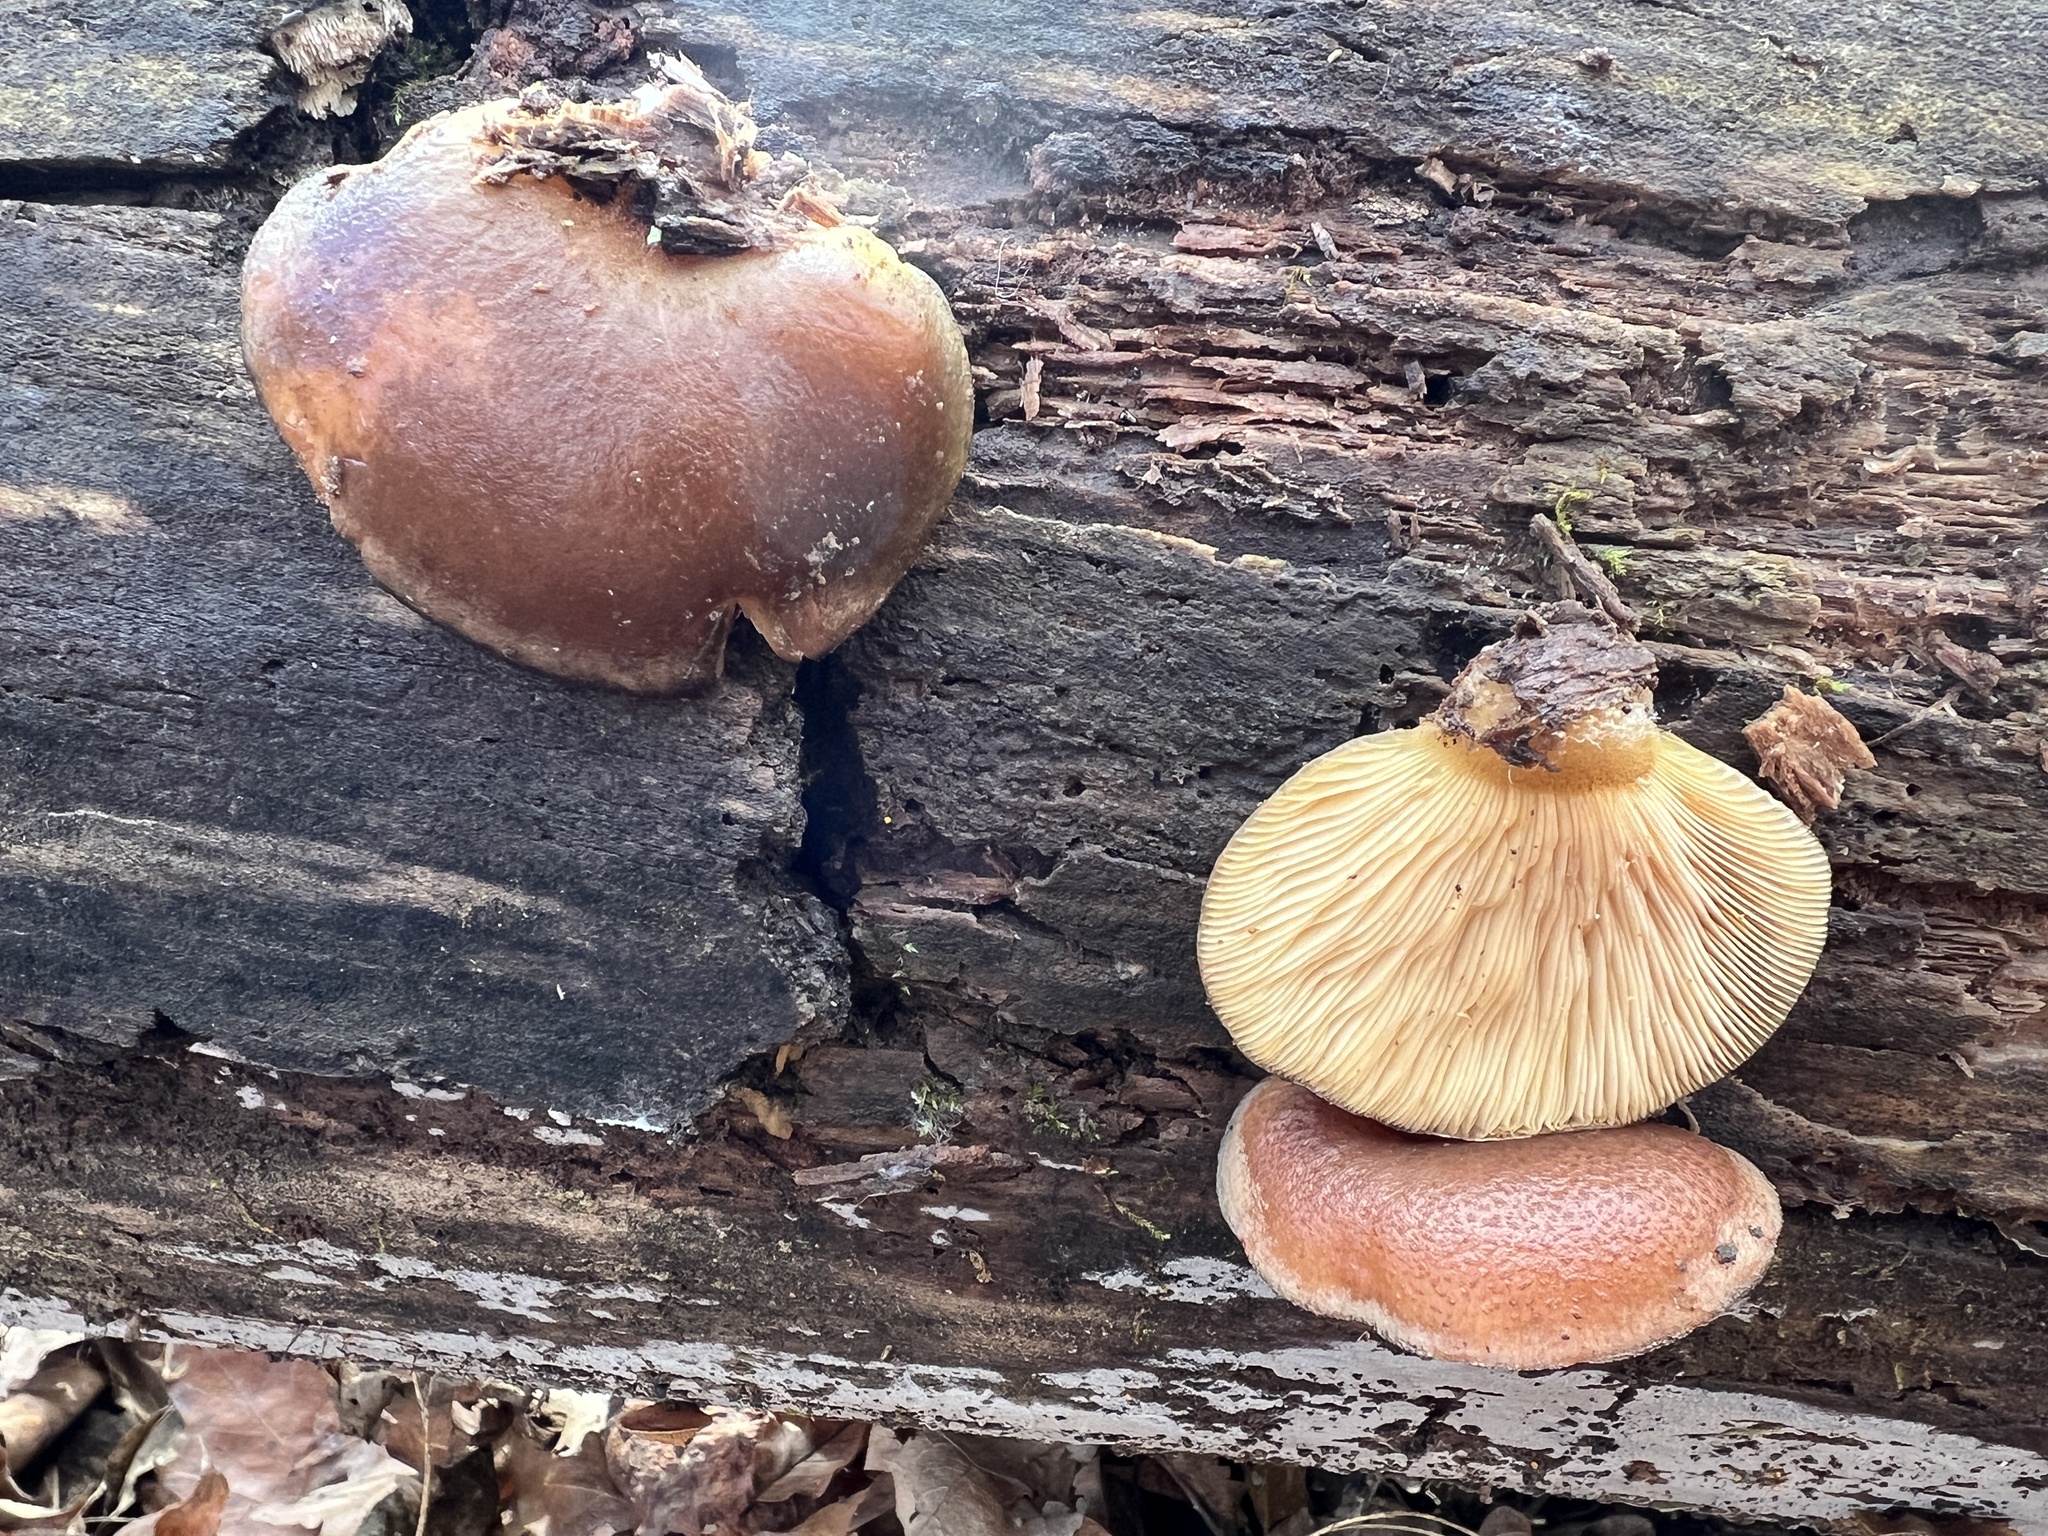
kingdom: Fungi
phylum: Basidiomycota
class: Agaricomycetes
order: Agaricales
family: Sarcomyxaceae
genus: Sarcomyxa
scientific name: Sarcomyxa serotina
